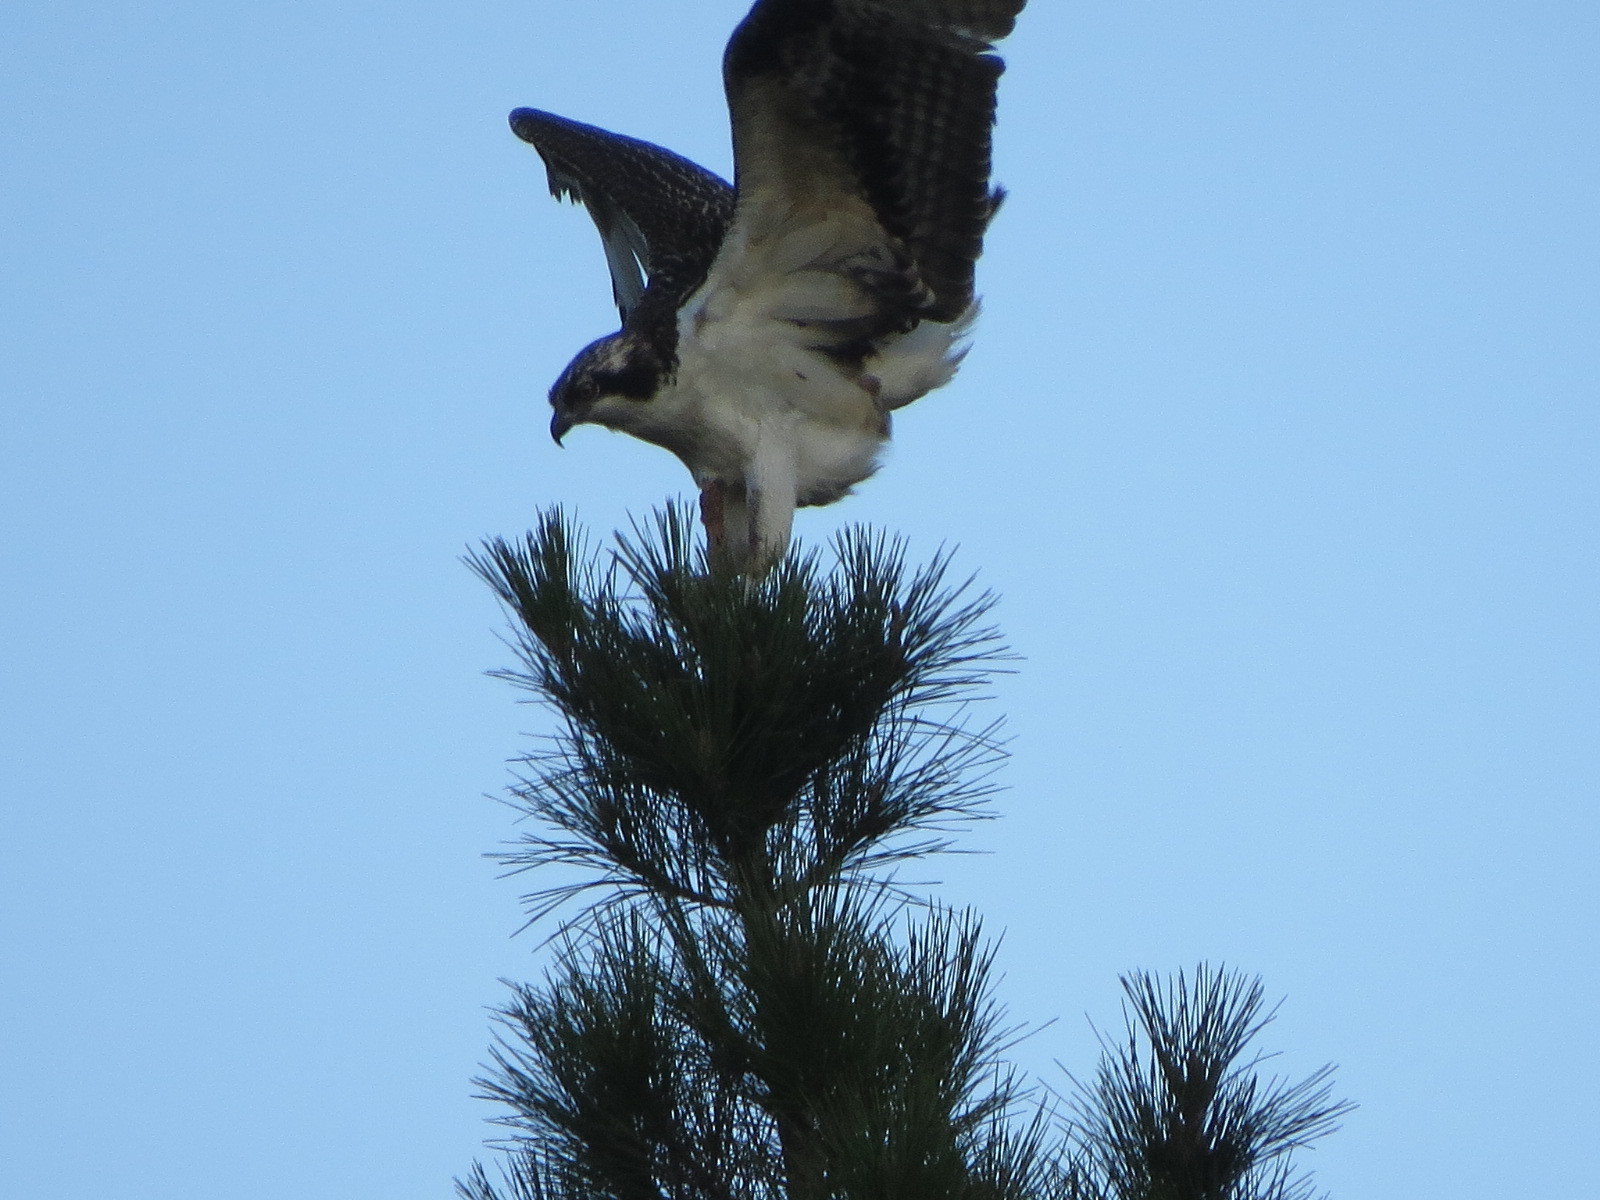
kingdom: Animalia
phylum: Chordata
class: Aves
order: Accipitriformes
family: Pandionidae
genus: Pandion
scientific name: Pandion haliaetus
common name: Osprey
